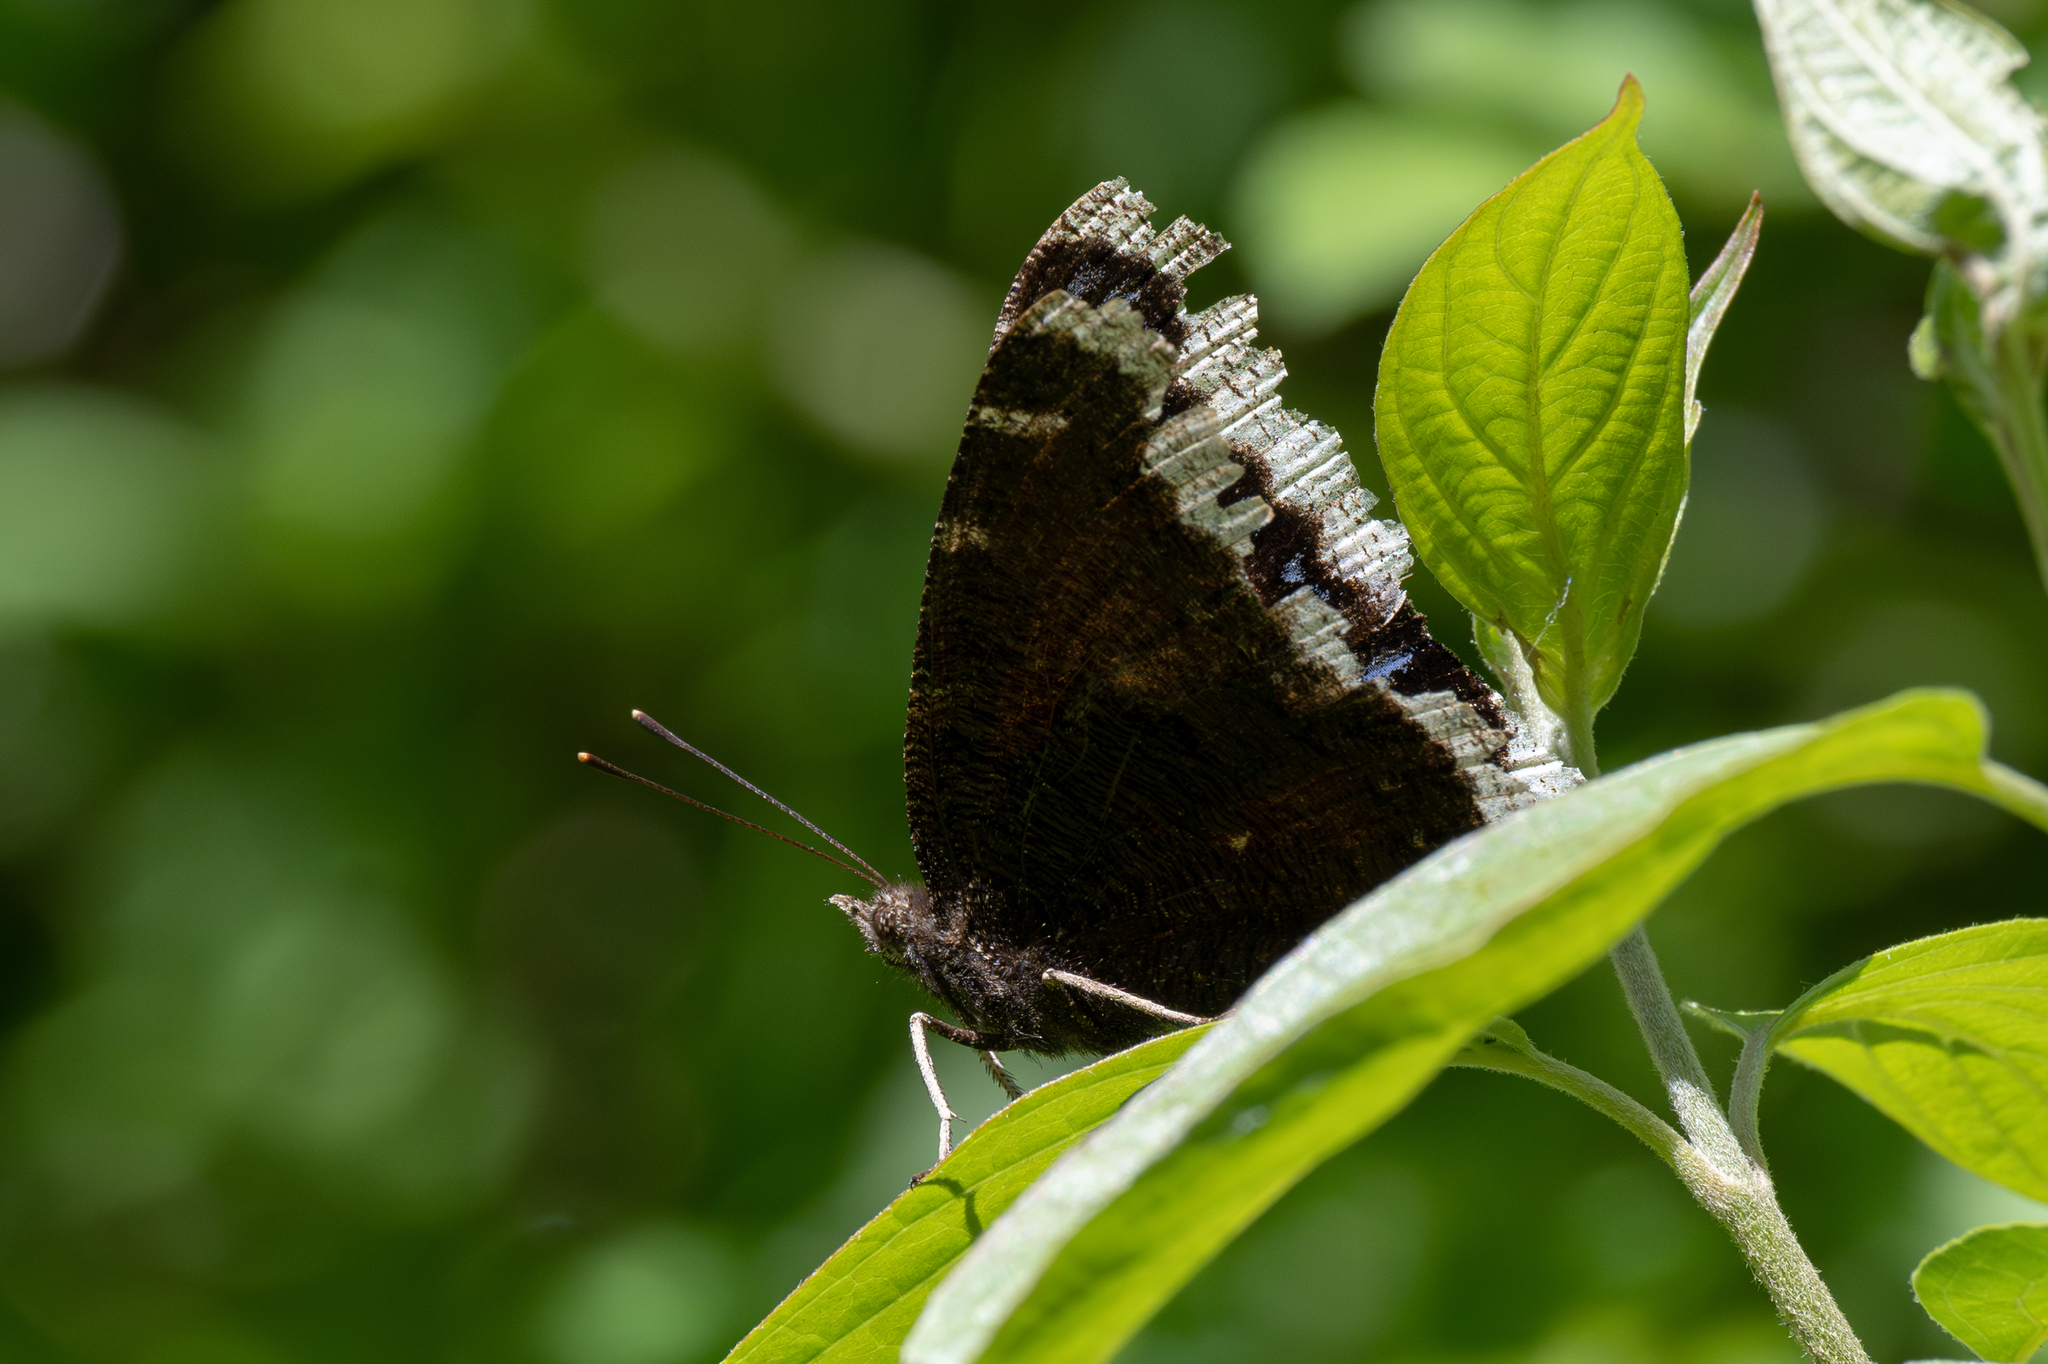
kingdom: Animalia
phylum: Arthropoda
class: Insecta
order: Lepidoptera
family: Nymphalidae
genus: Nymphalis
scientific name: Nymphalis antiopa
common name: Camberwell beauty
